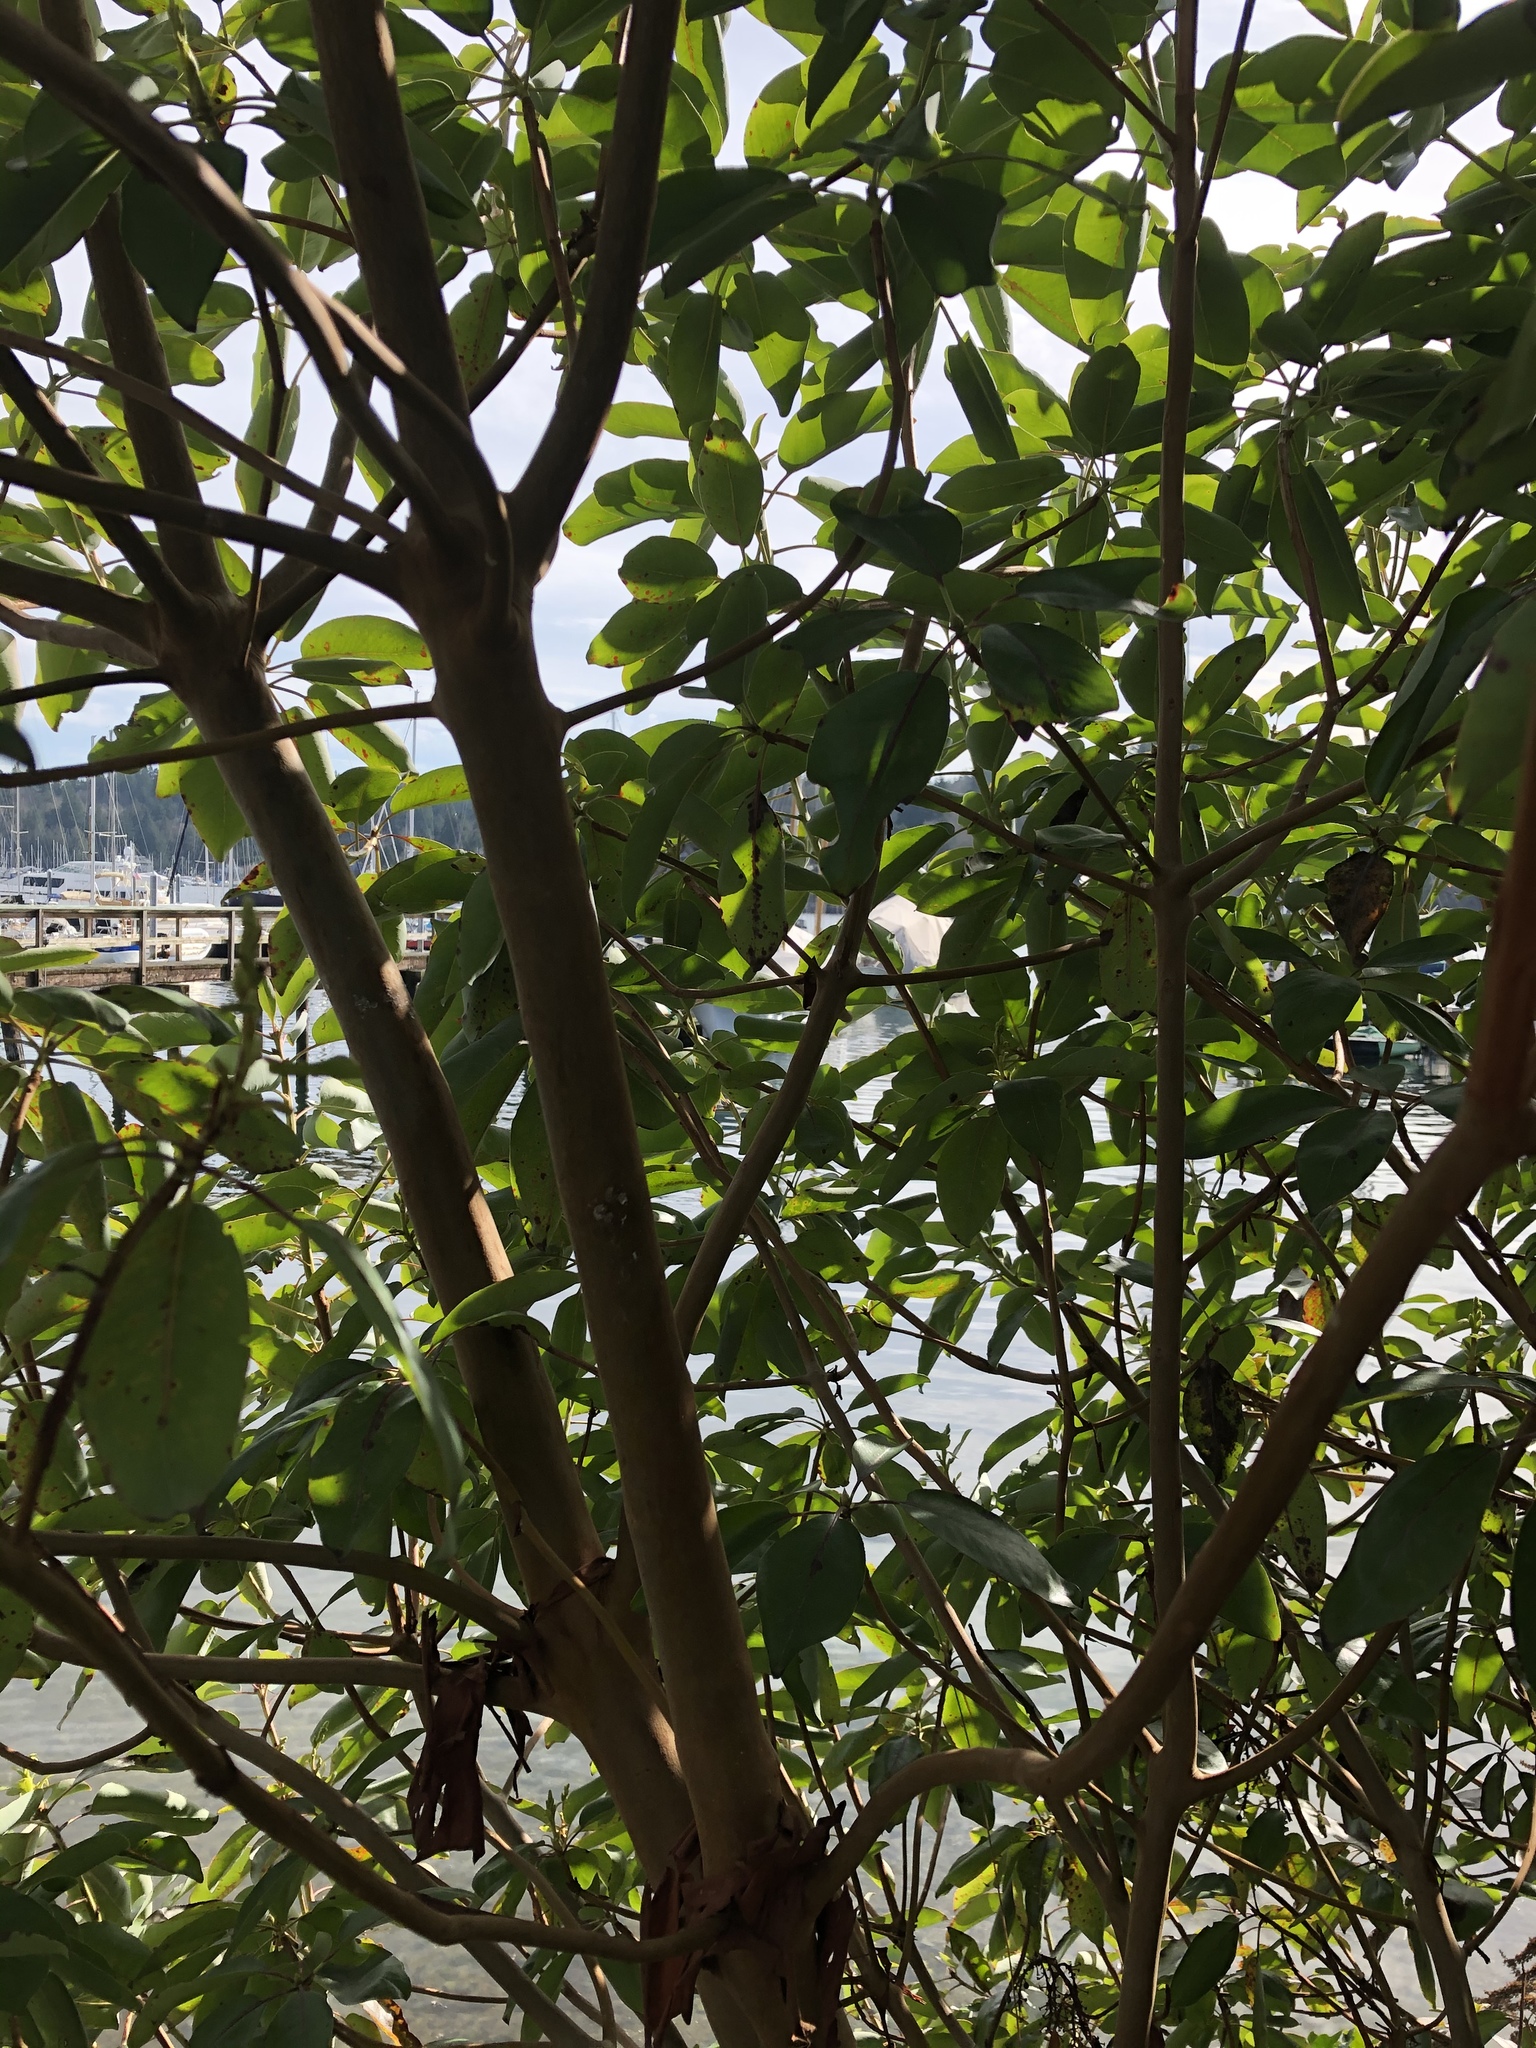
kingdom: Plantae
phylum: Tracheophyta
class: Magnoliopsida
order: Ericales
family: Ericaceae
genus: Arbutus
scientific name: Arbutus menziesii
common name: Pacific madrone
